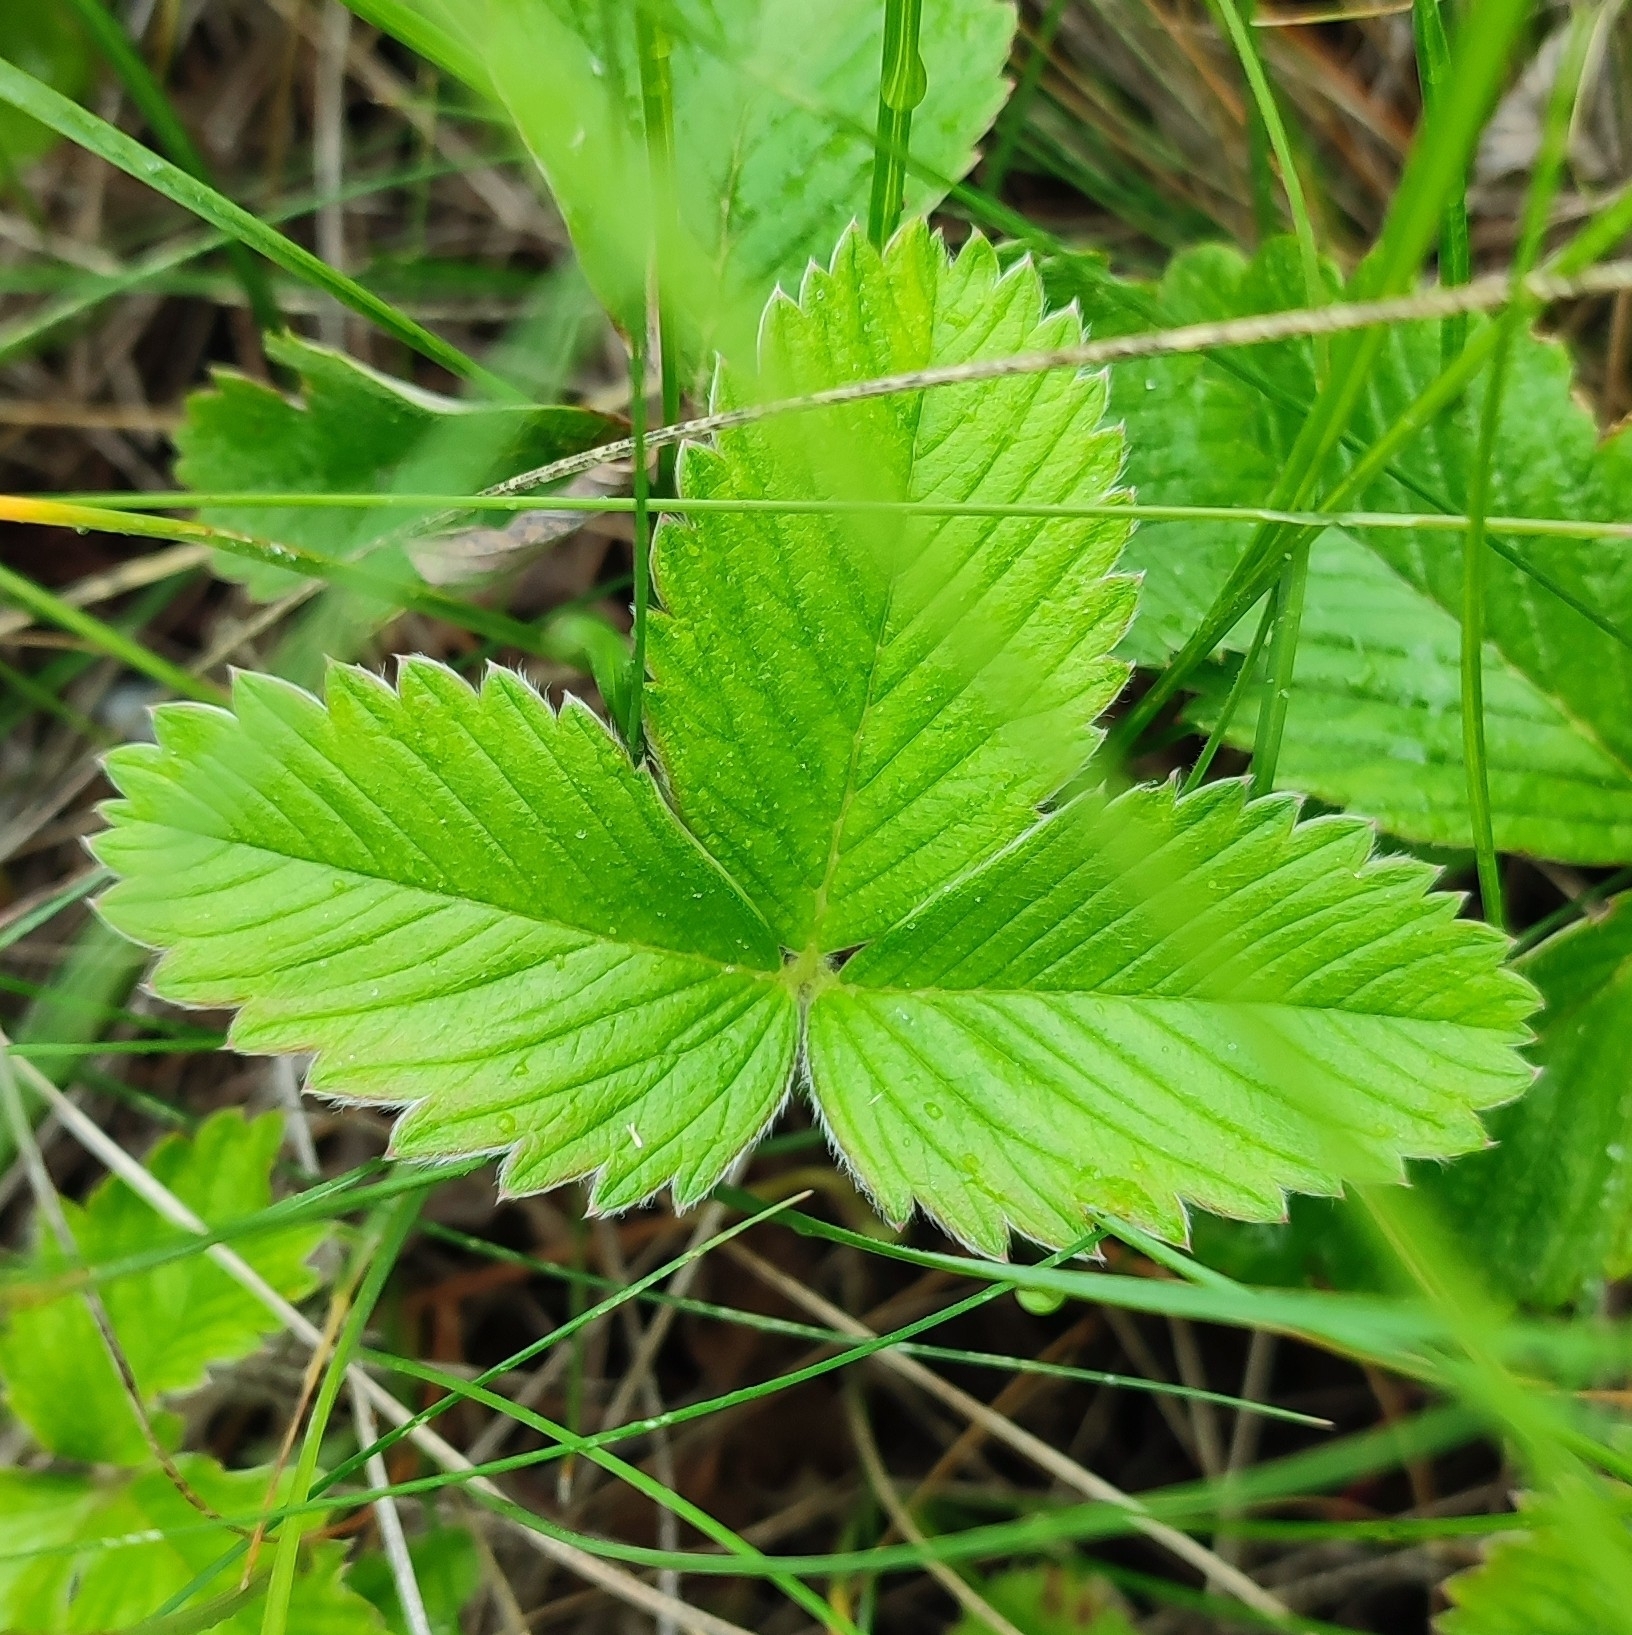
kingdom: Plantae
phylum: Tracheophyta
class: Magnoliopsida
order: Rosales
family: Rosaceae
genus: Fragaria
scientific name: Fragaria viridis
